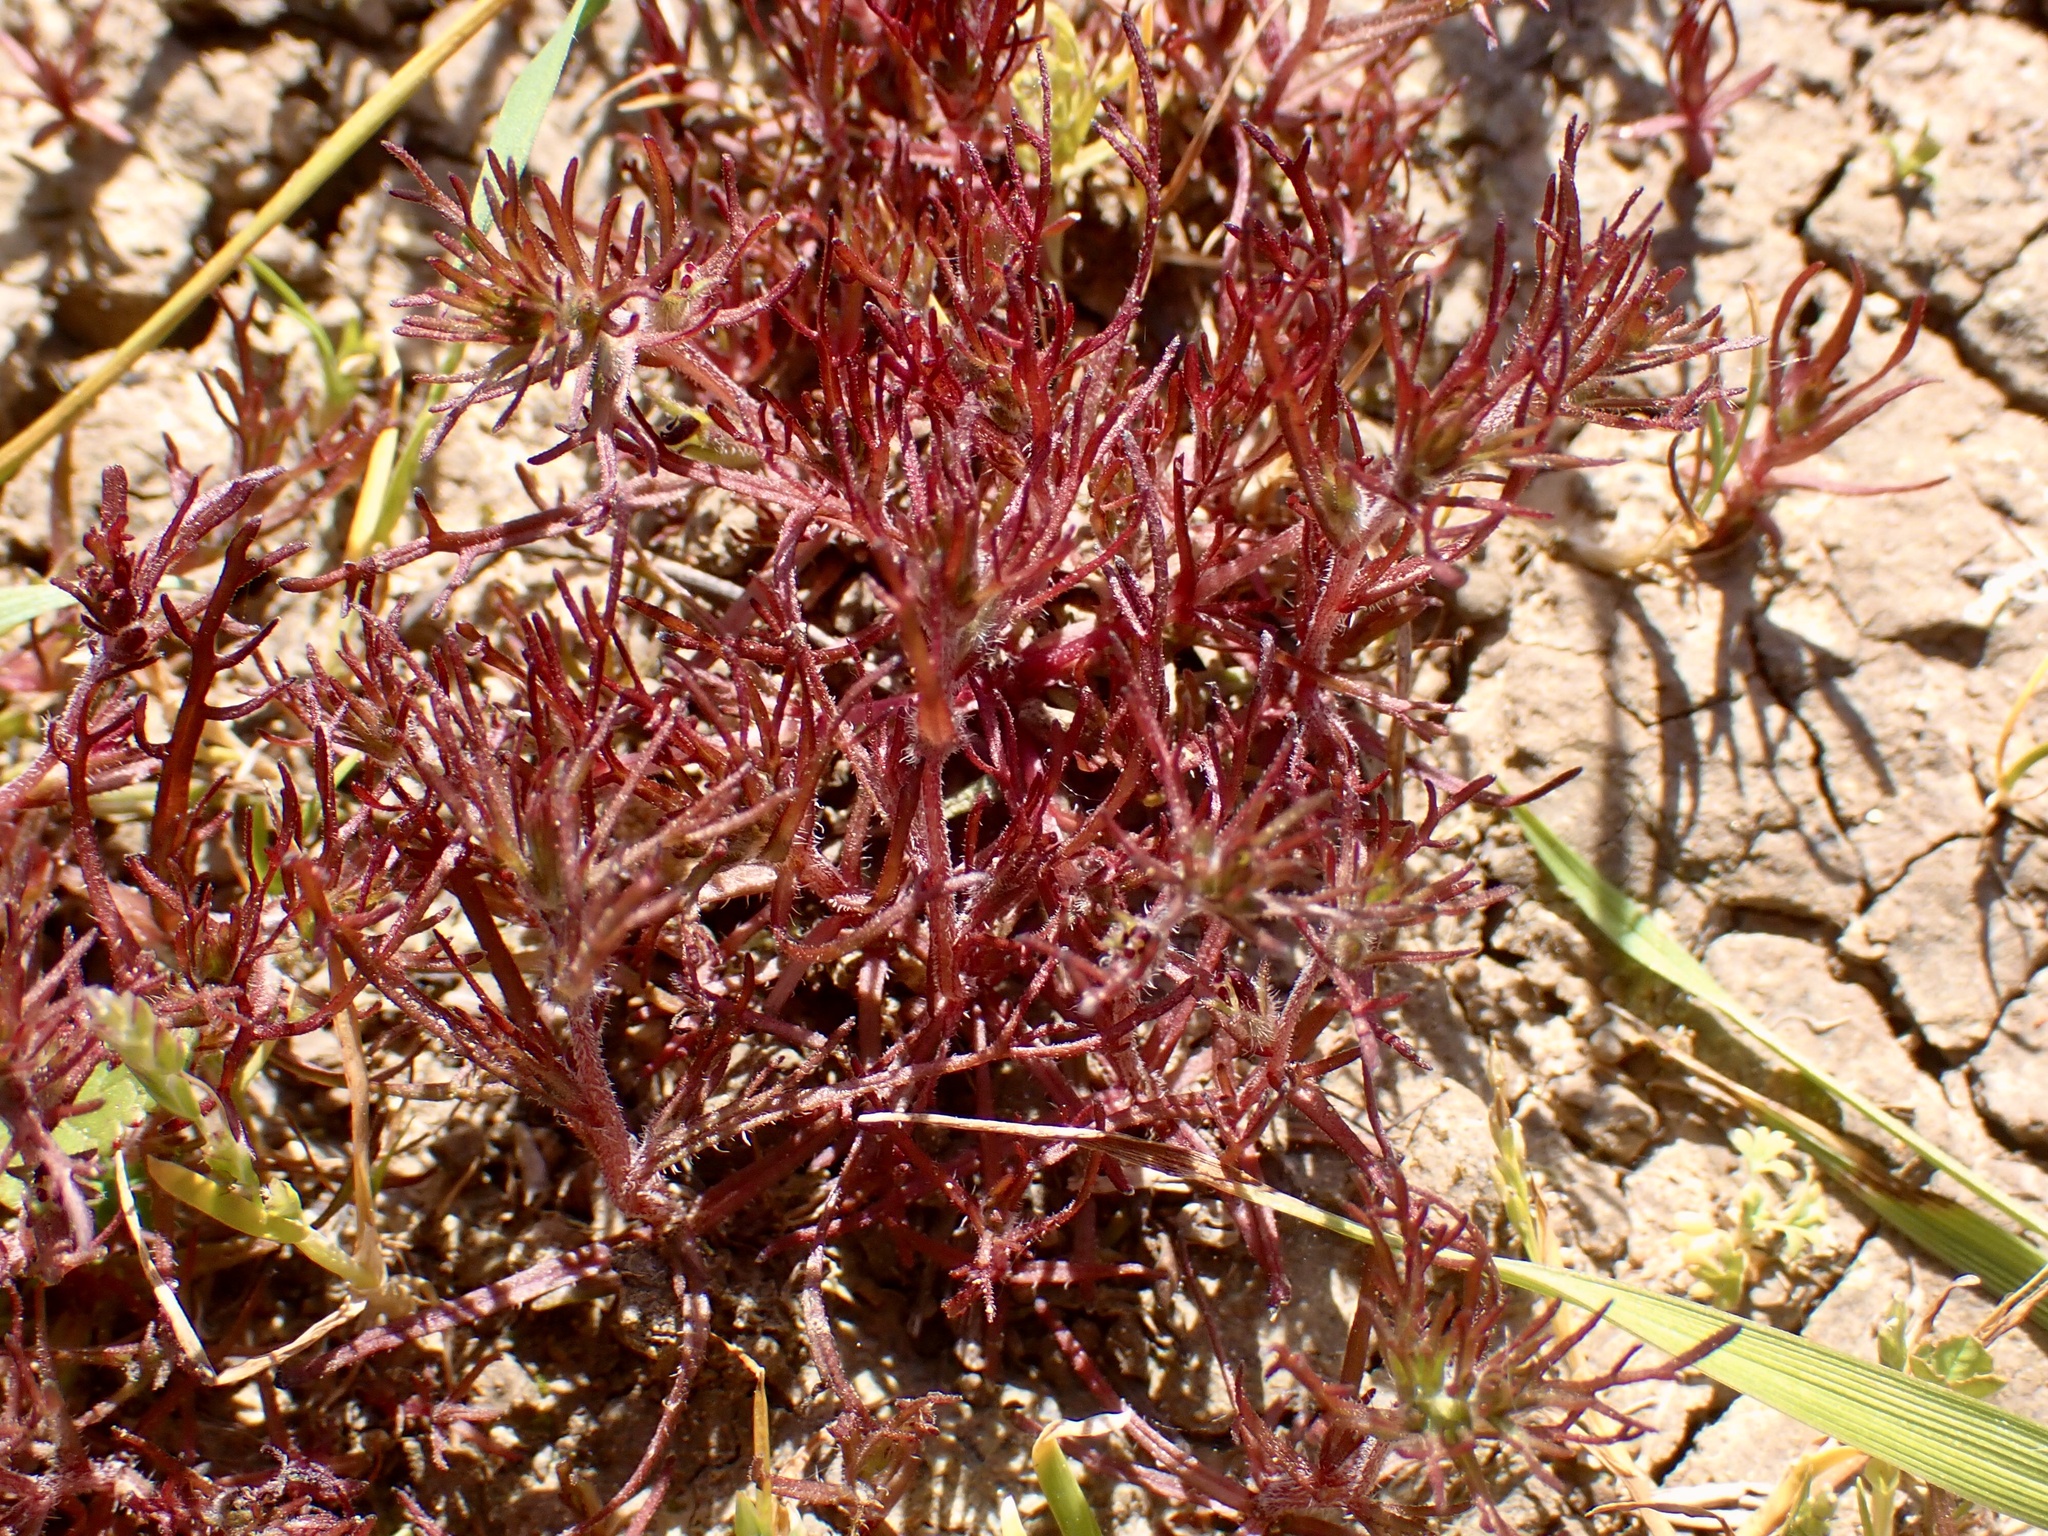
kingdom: Plantae
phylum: Tracheophyta
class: Magnoliopsida
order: Lamiales
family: Orobanchaceae
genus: Triphysaria
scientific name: Triphysaria pusilla
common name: Dwarf false owl-clover
